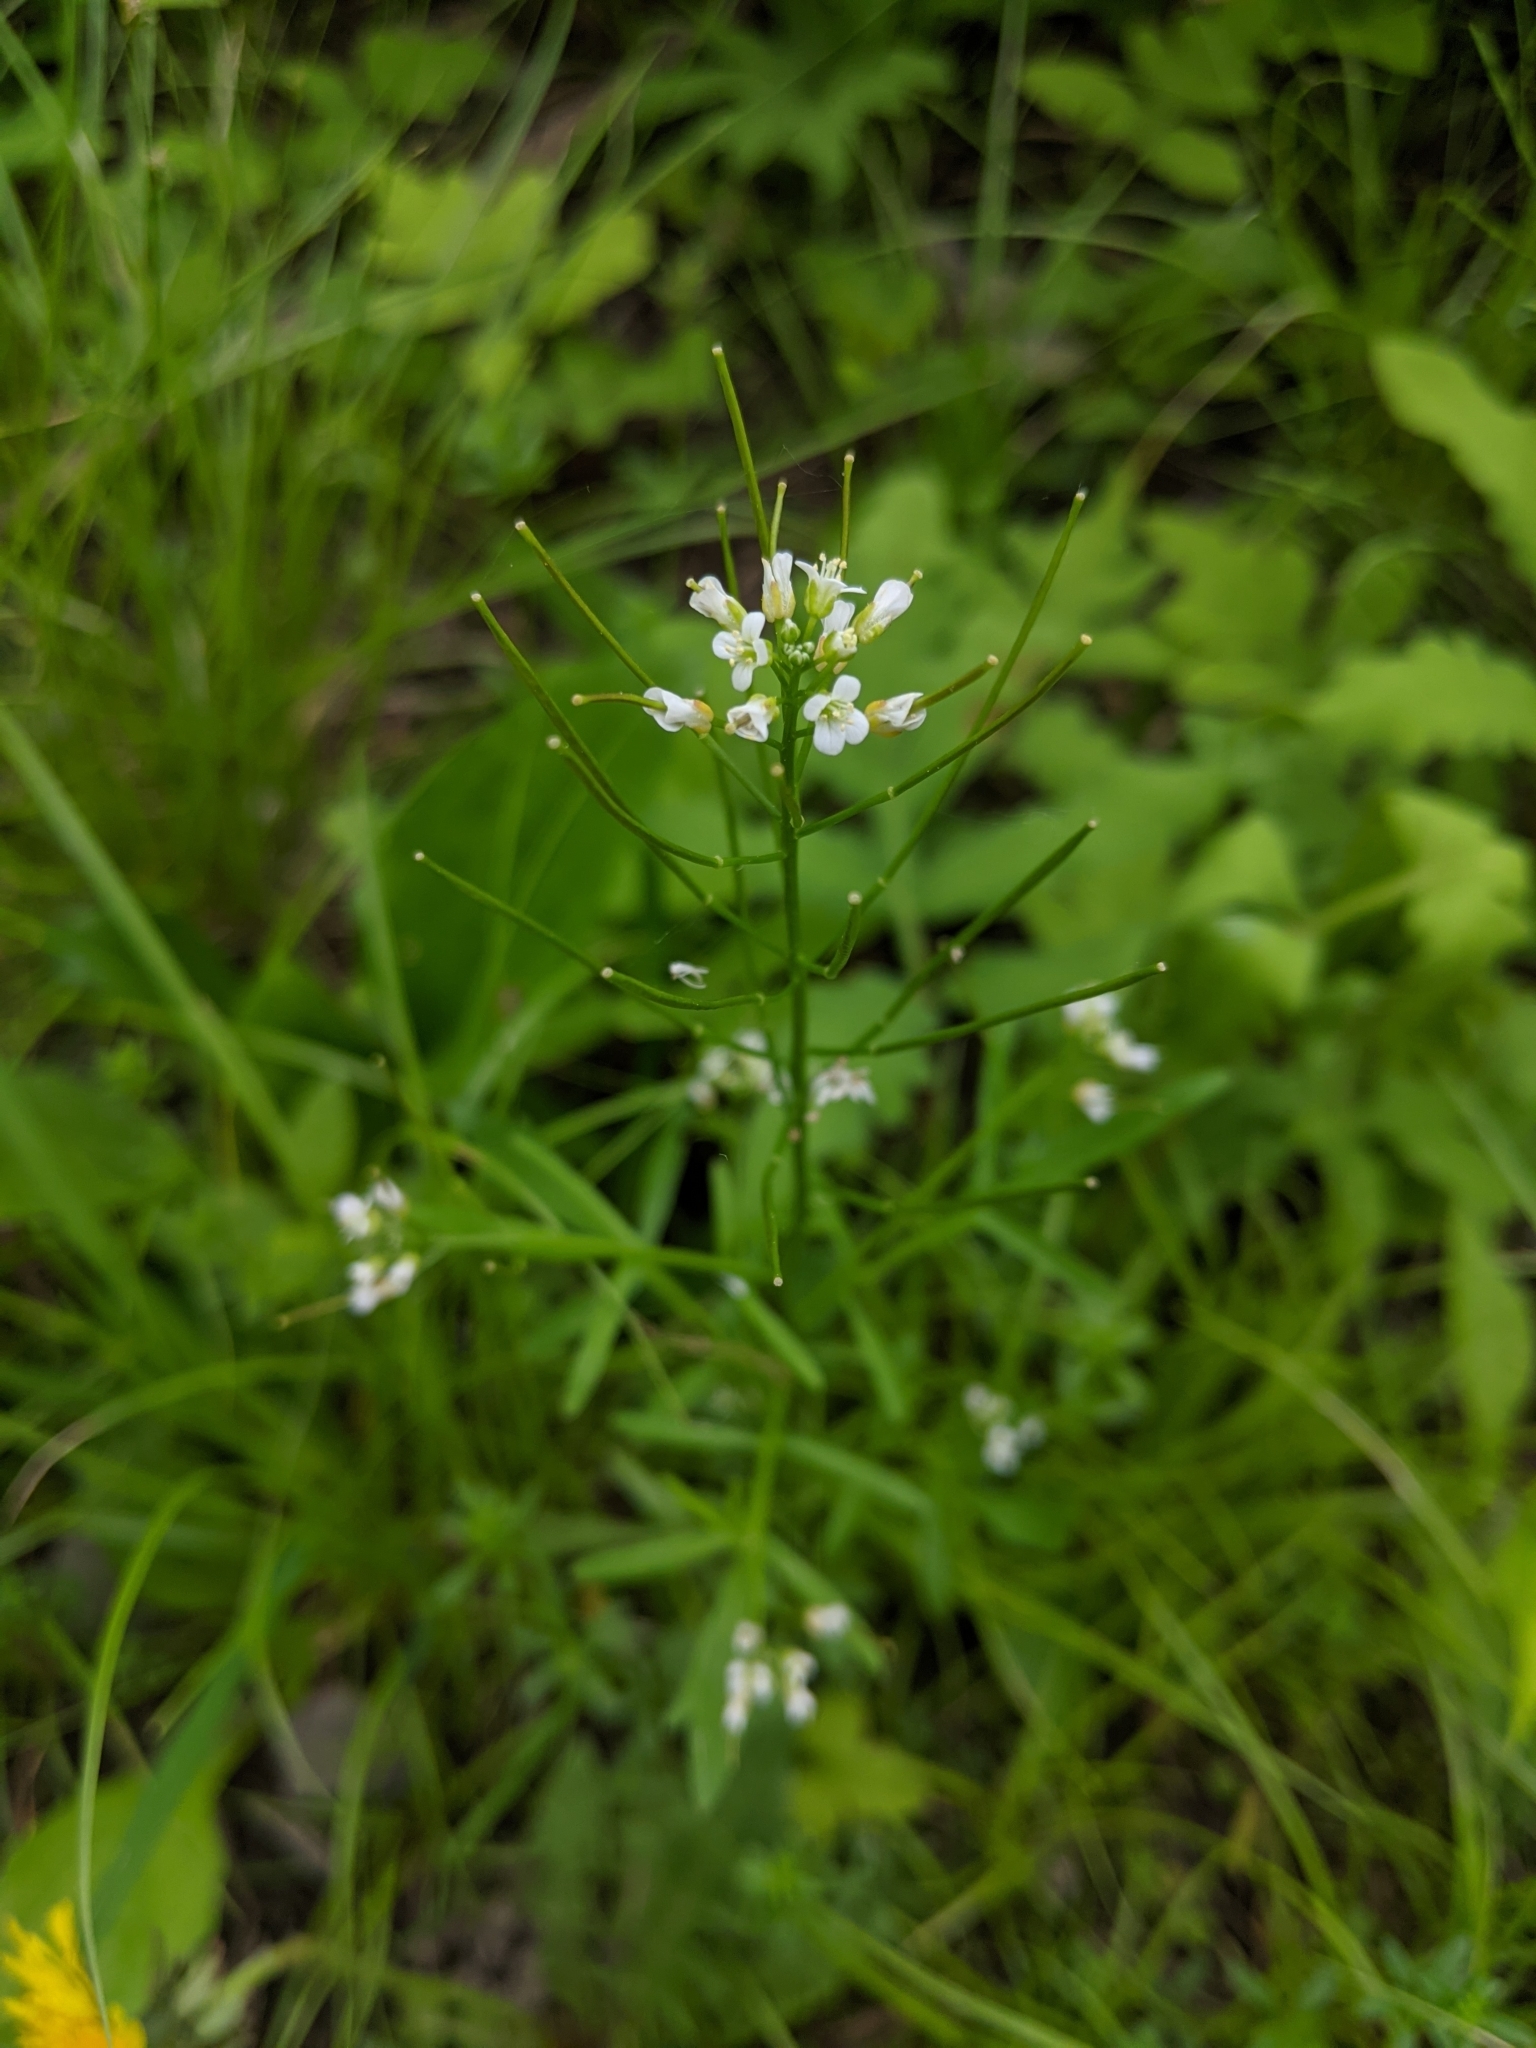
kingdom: Plantae
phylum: Tracheophyta
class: Magnoliopsida
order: Brassicales
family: Brassicaceae
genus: Cardamine
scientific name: Cardamine pensylvanica
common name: Pennsylvania bittercress
